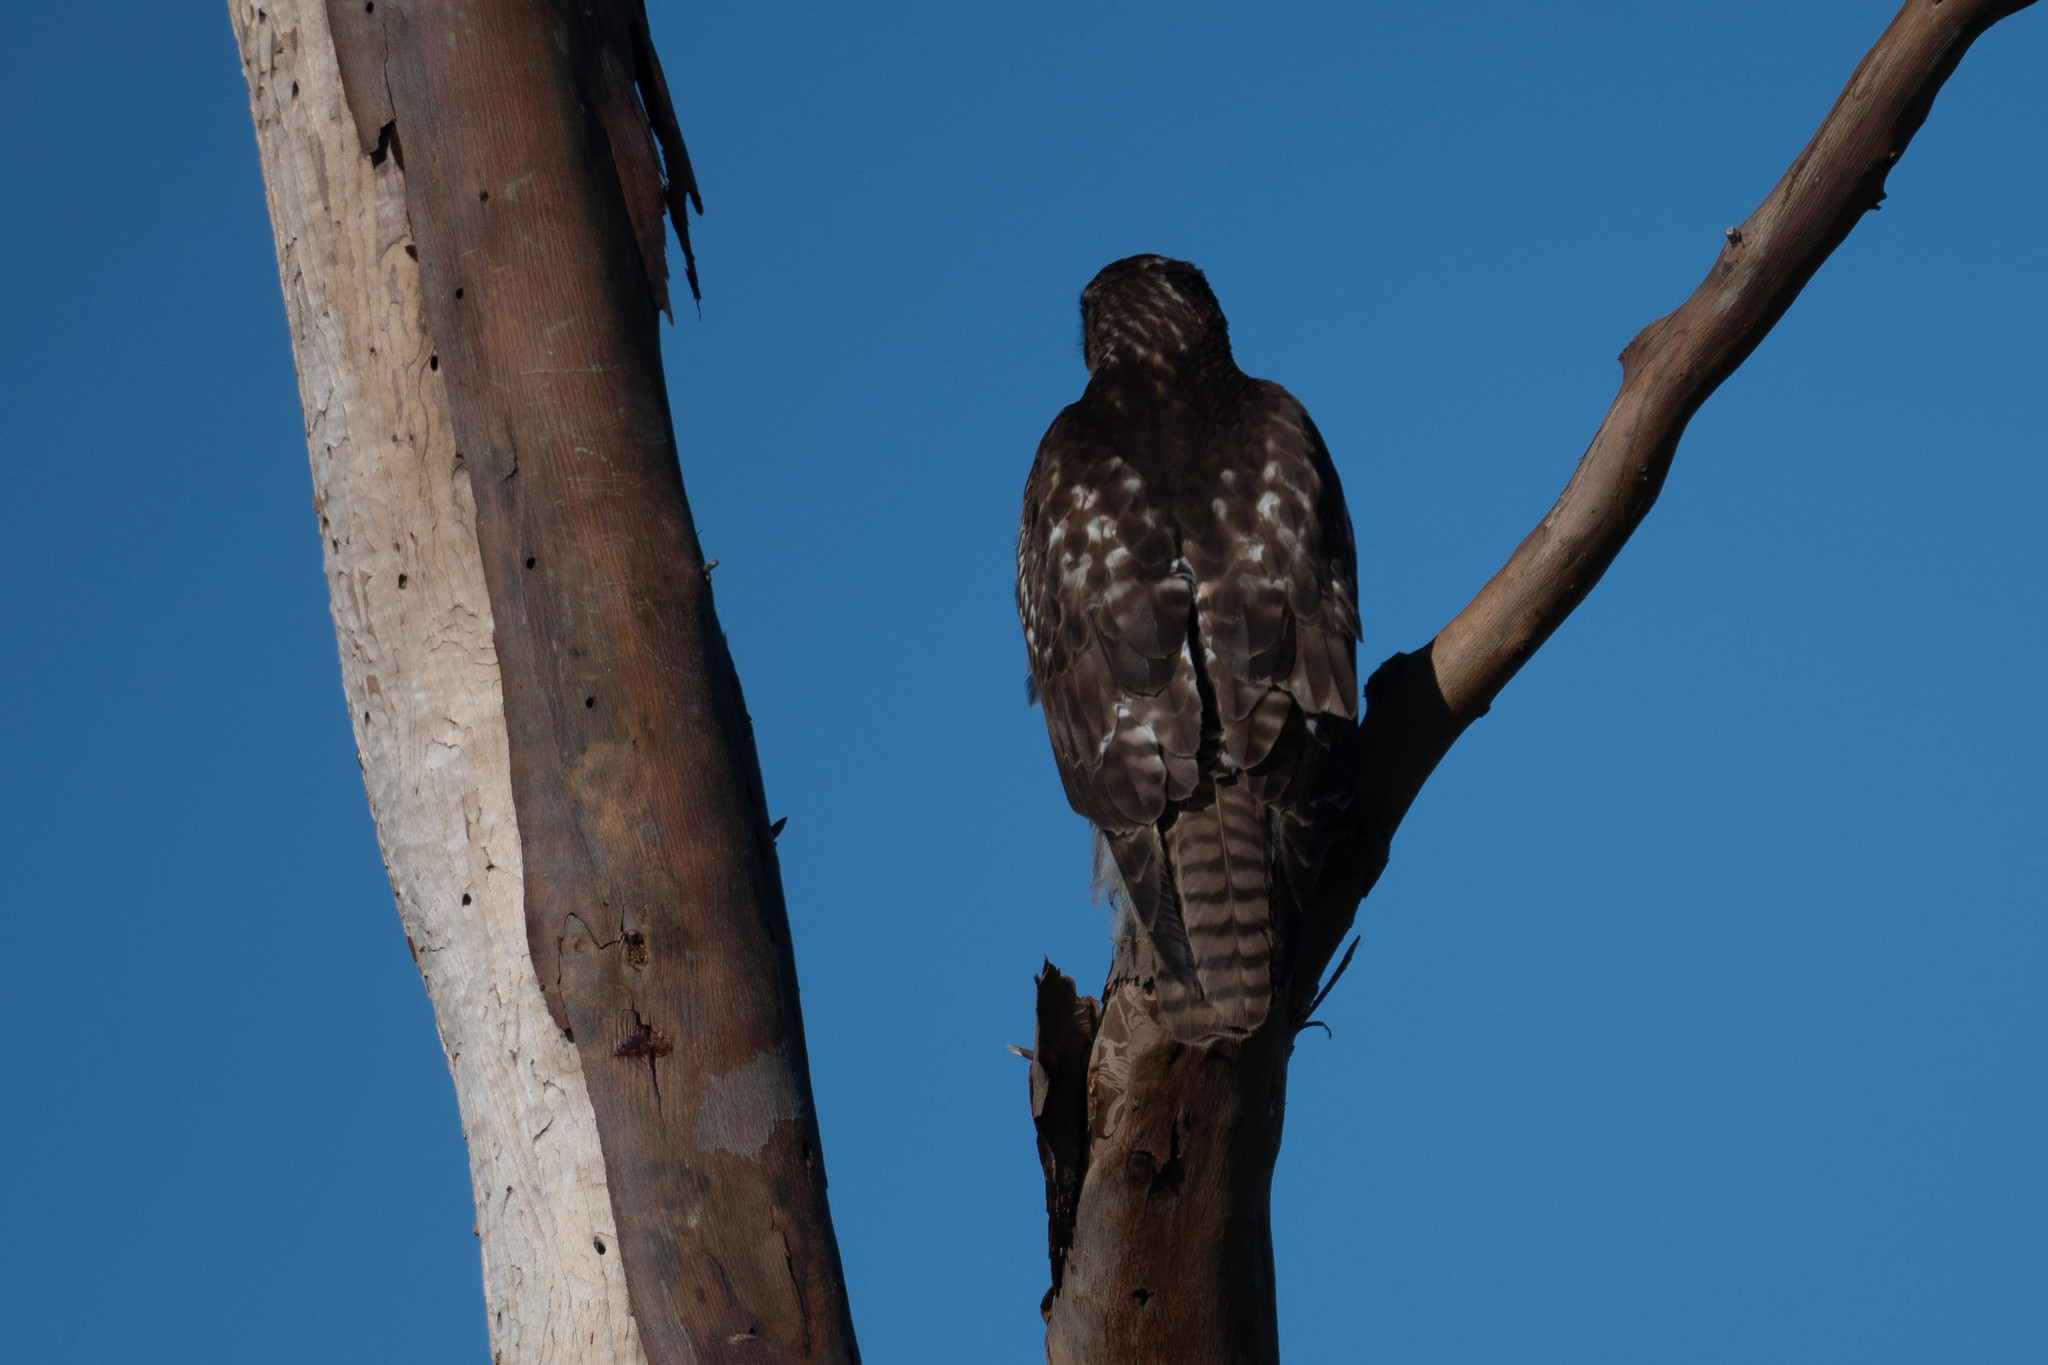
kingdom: Animalia
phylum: Chordata
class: Aves
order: Accipitriformes
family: Accipitridae
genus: Buteo
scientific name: Buteo jamaicensis
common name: Red-tailed hawk
